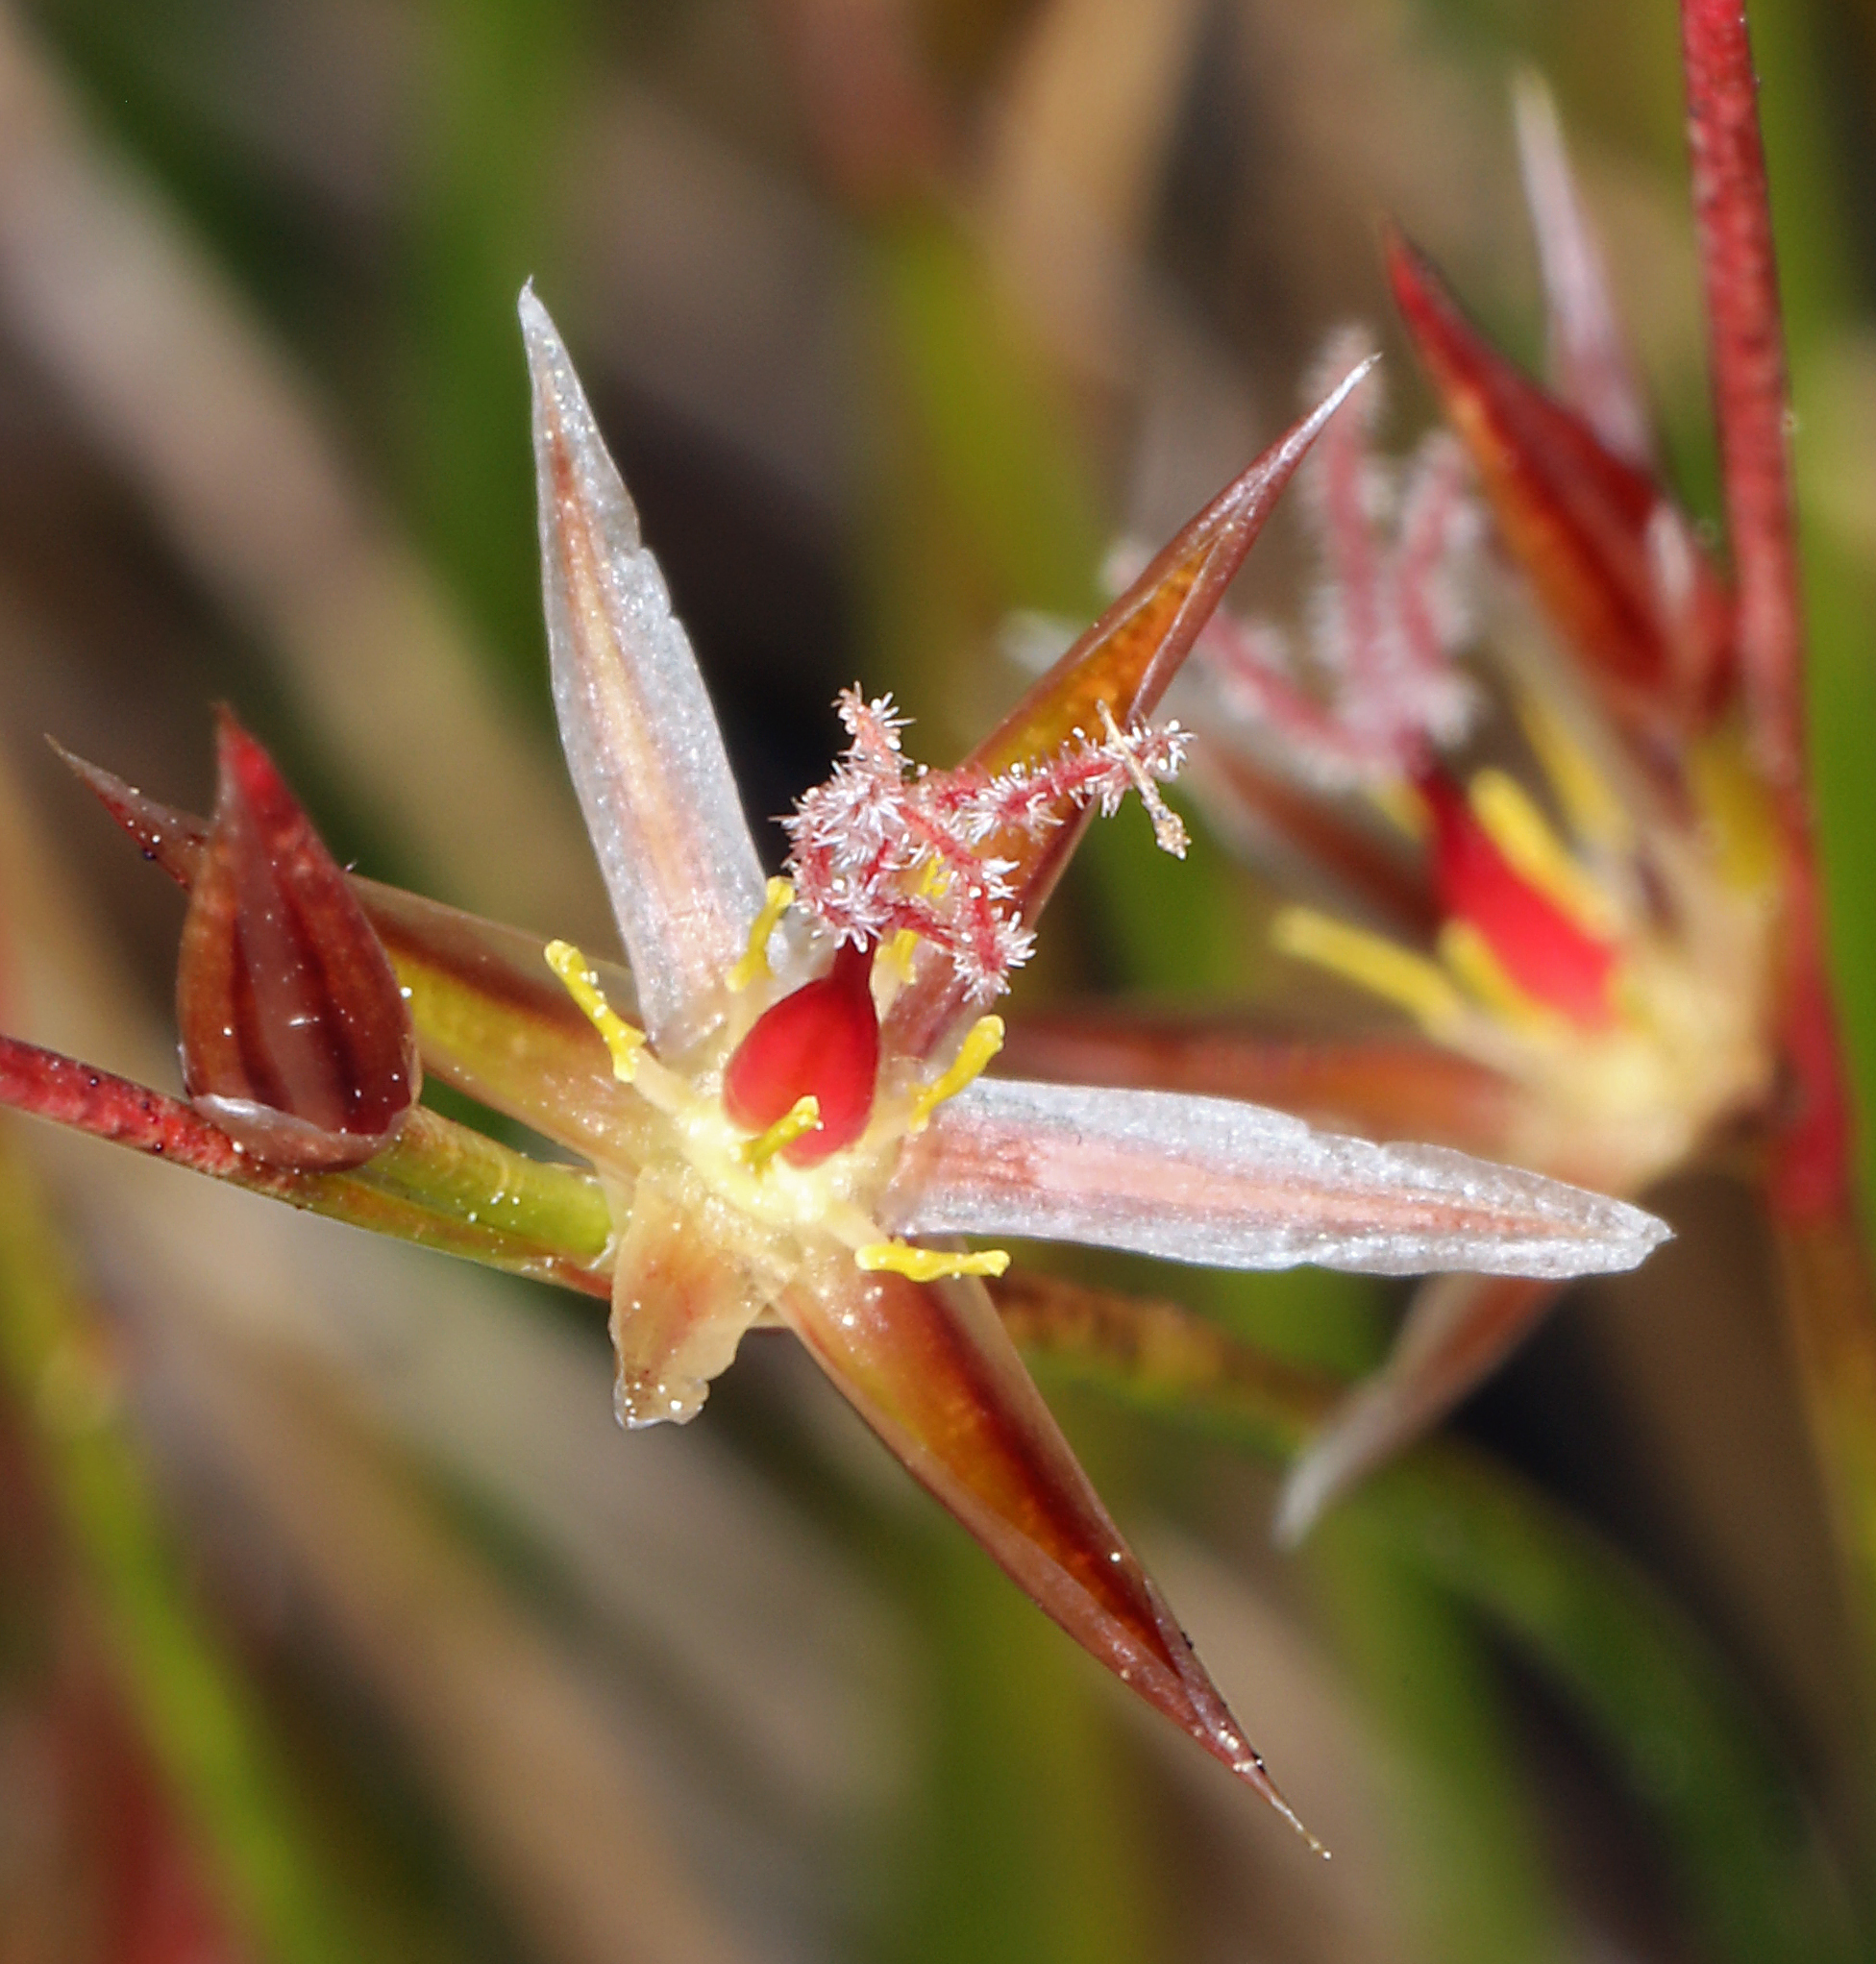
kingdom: Plantae
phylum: Tracheophyta
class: Liliopsida
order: Poales
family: Juncaceae
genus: Juncus
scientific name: Juncus parryi
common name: Parry's rush
